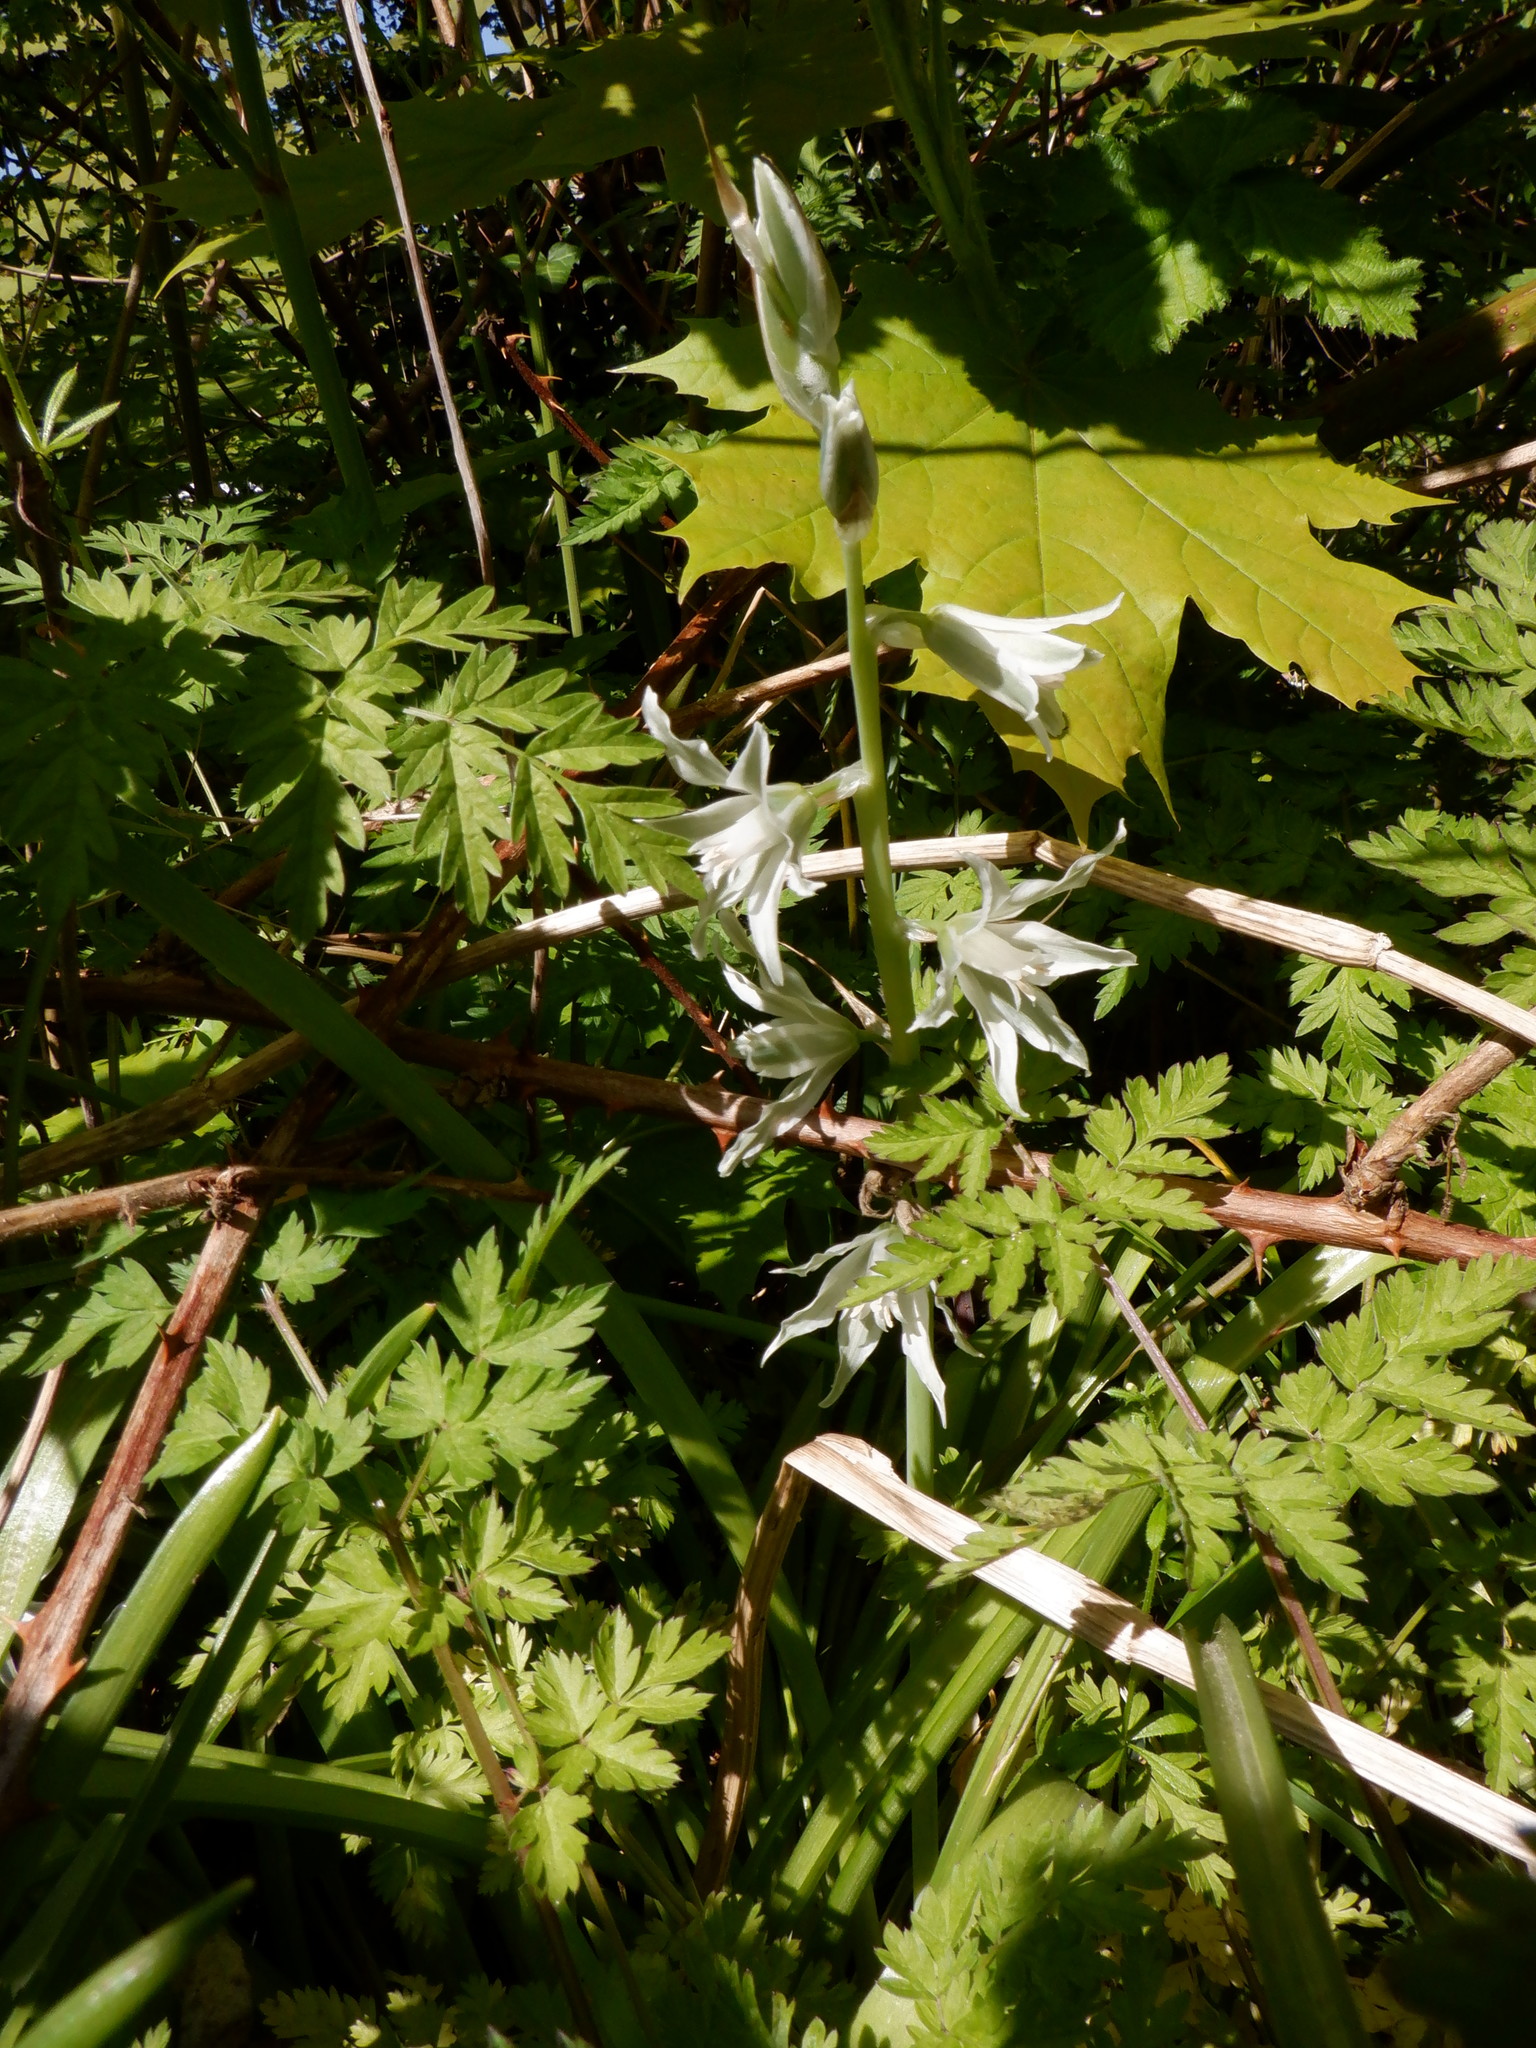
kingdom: Plantae
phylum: Tracheophyta
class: Liliopsida
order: Asparagales
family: Asparagaceae
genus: Ornithogalum
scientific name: Ornithogalum nutans
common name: Drooping star-of-bethlehem
